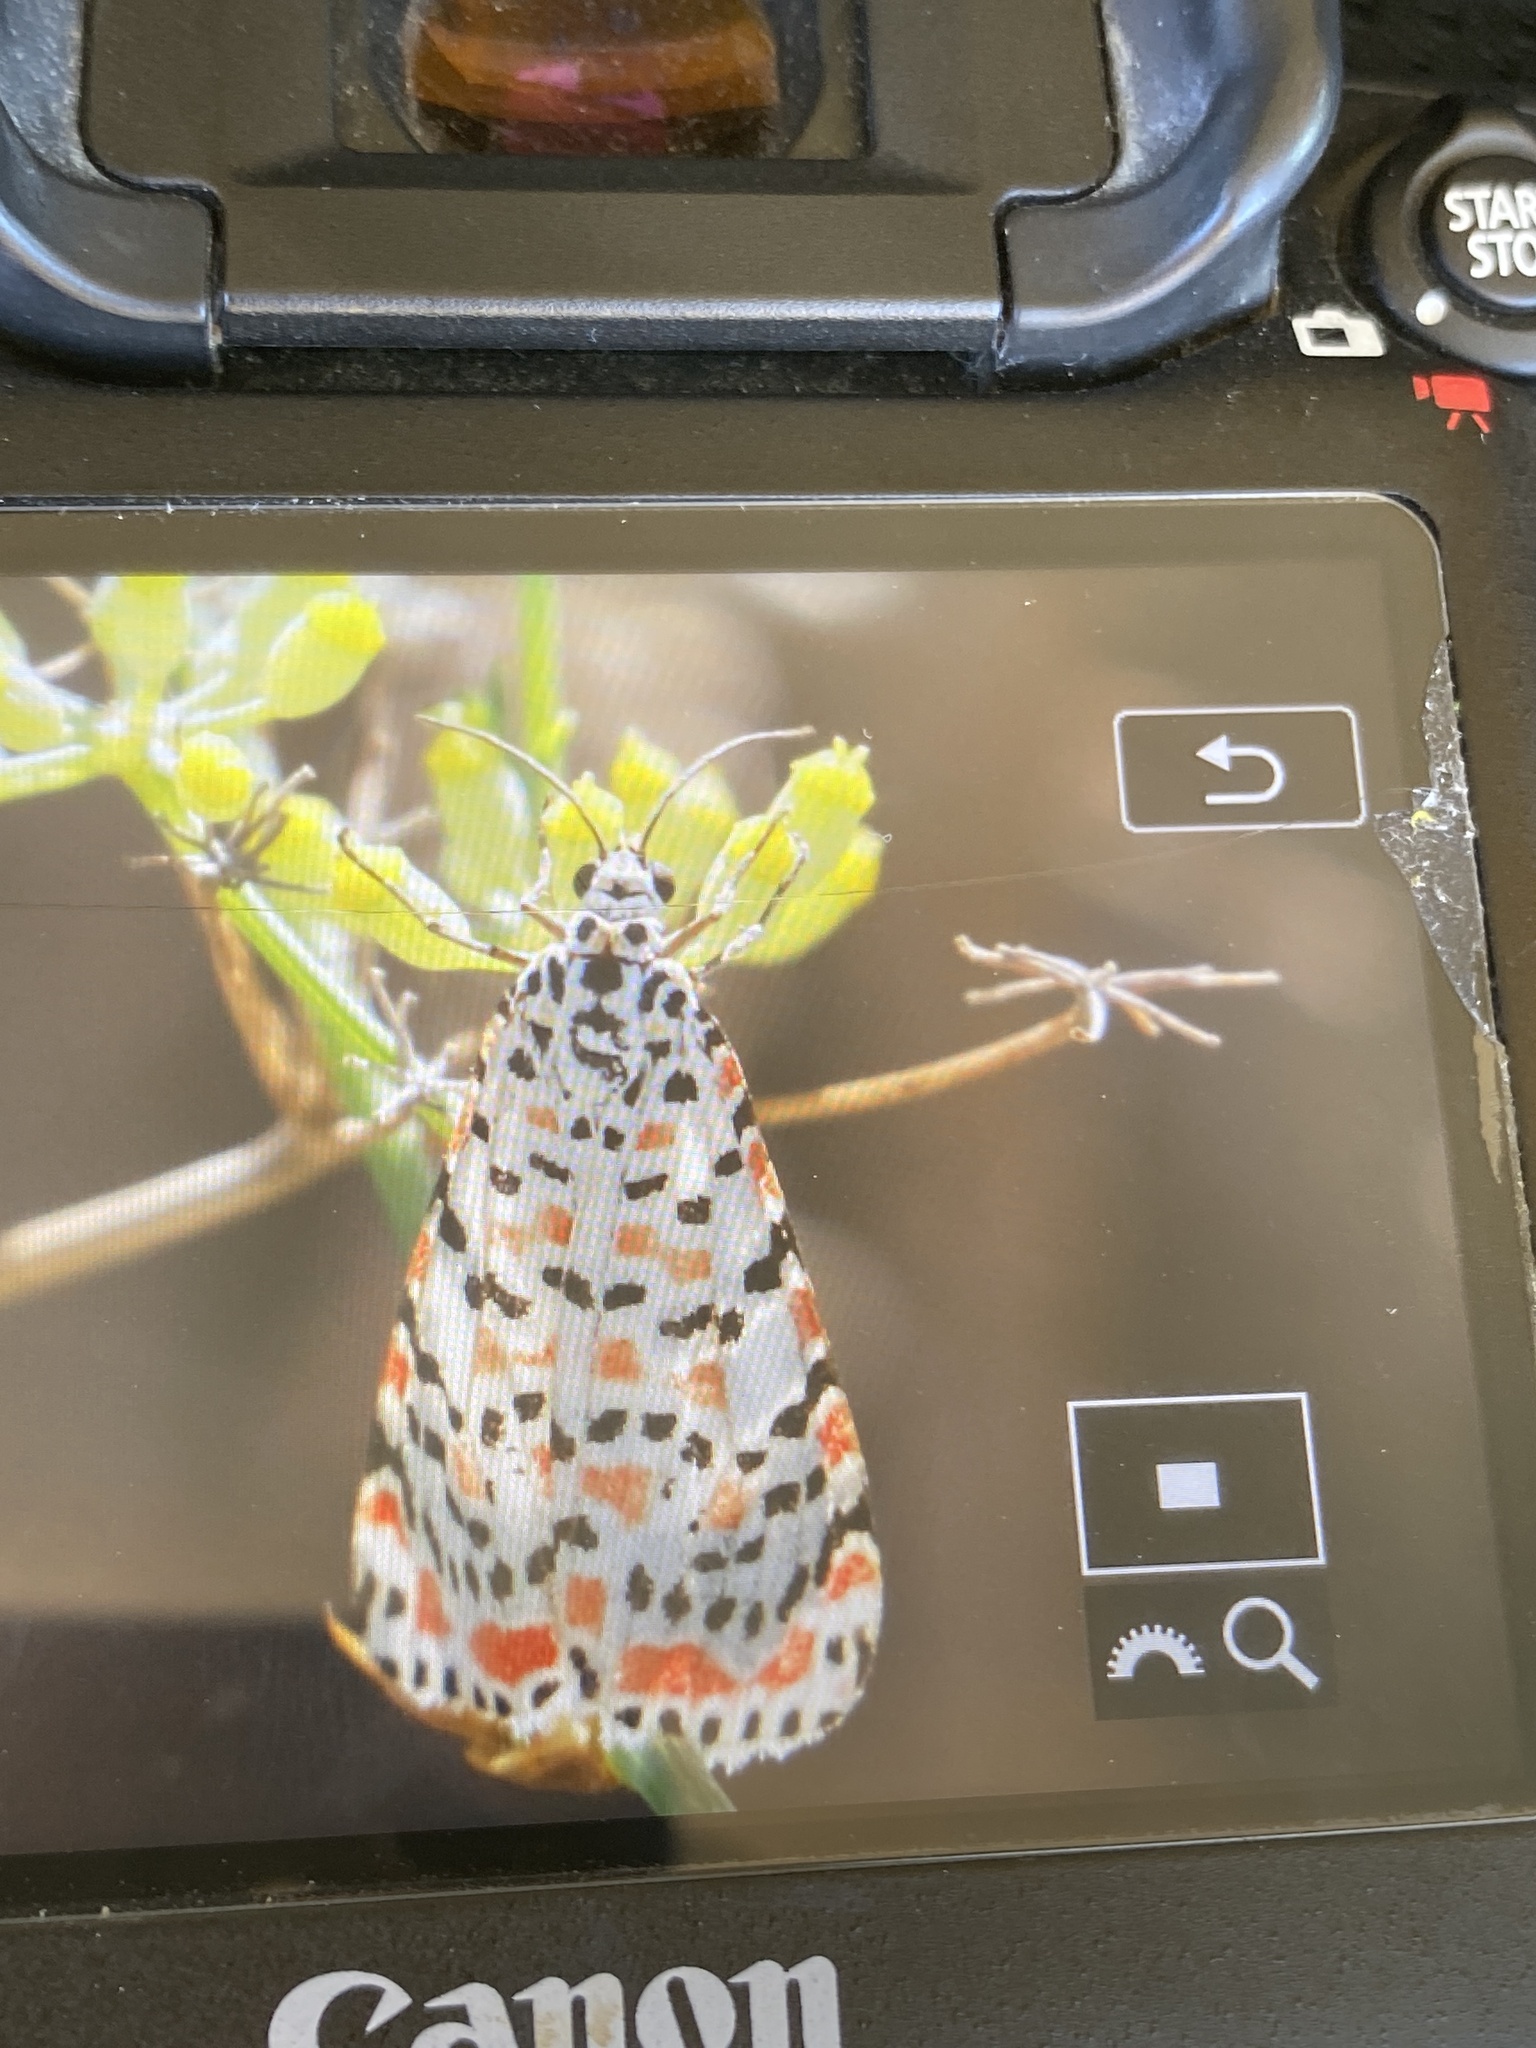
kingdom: Animalia
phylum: Arthropoda
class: Insecta
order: Lepidoptera
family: Erebidae
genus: Utetheisa
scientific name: Utetheisa pulchella
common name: Crimson speckled
